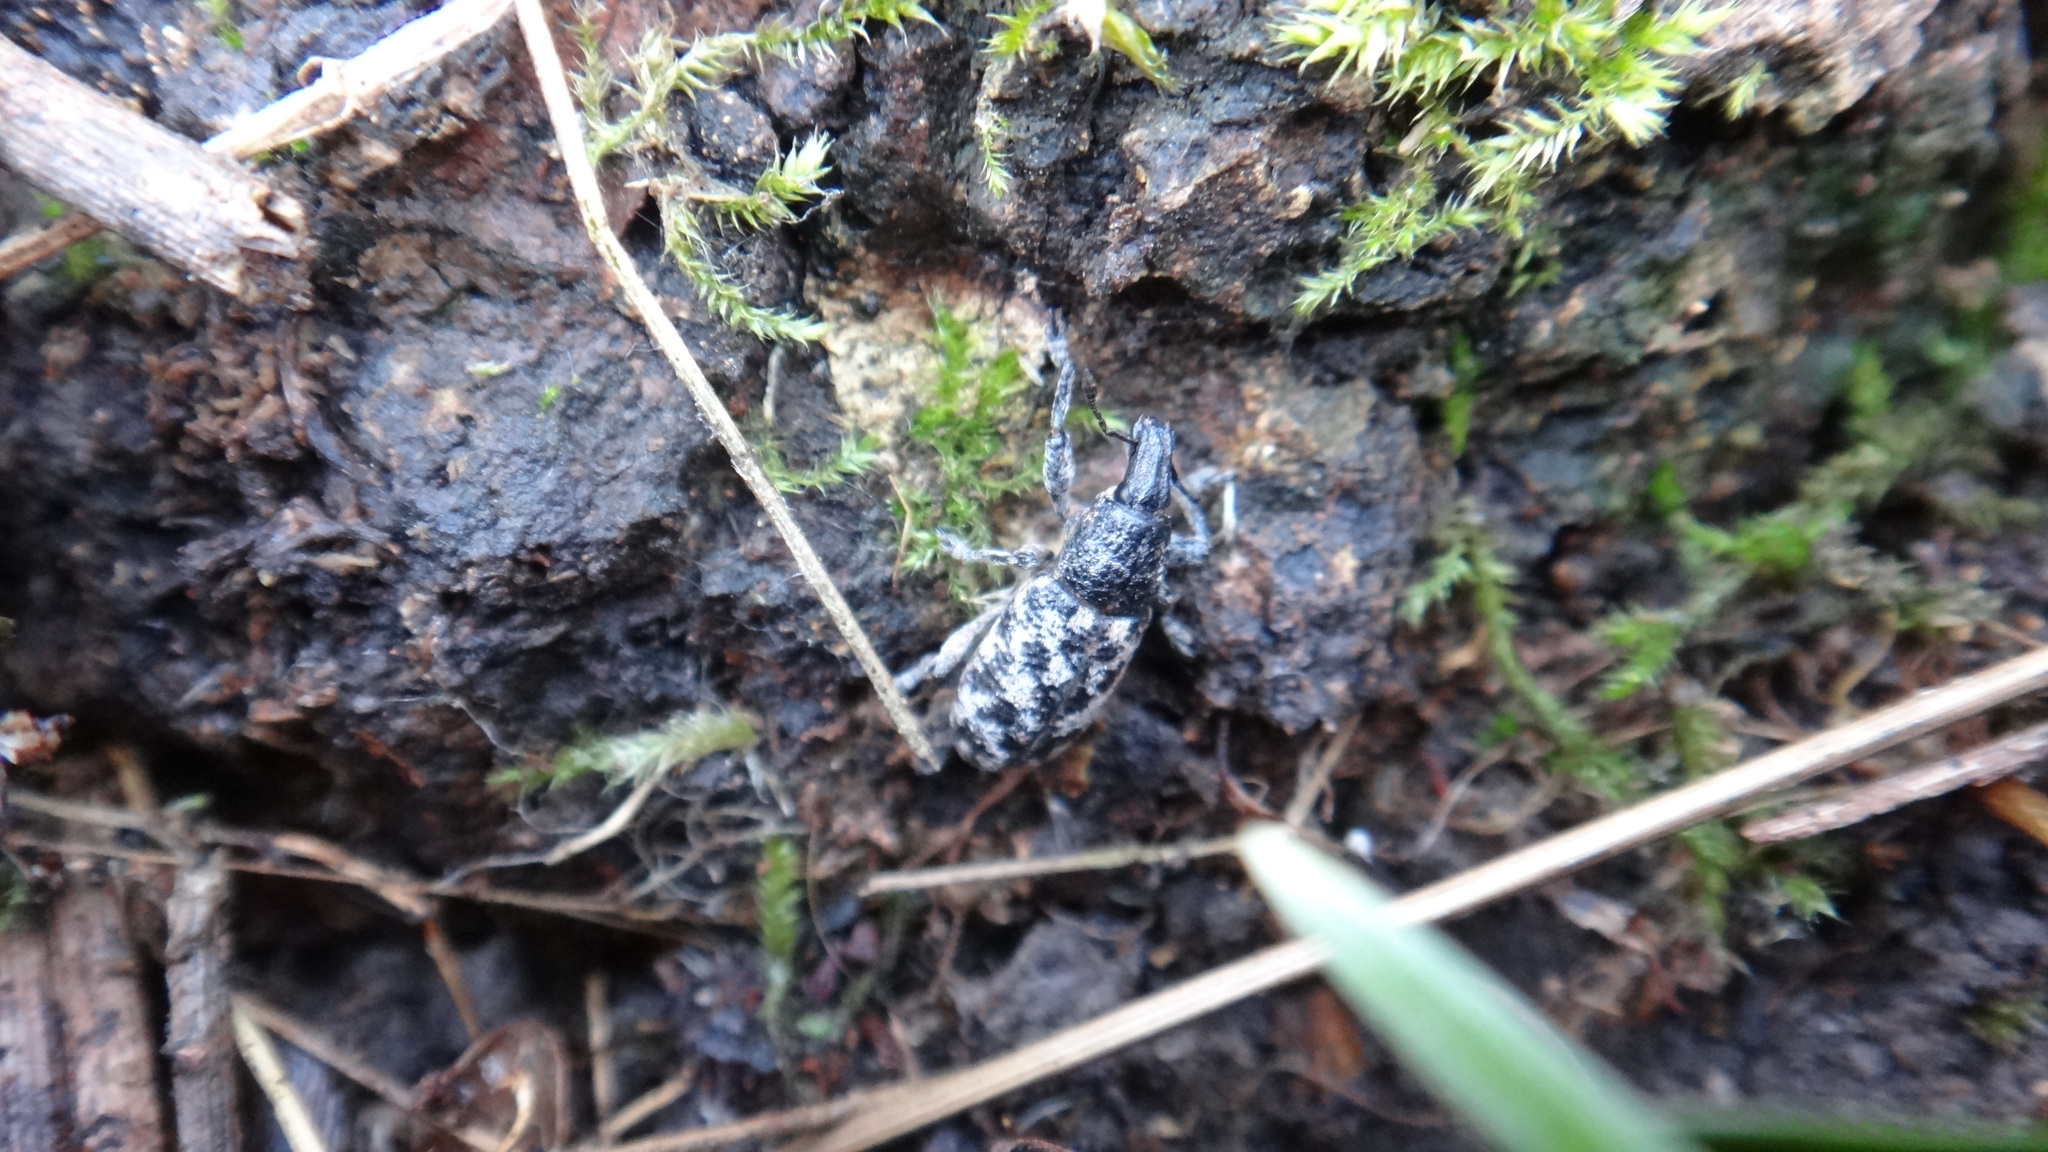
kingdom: Animalia
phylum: Arthropoda
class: Insecta
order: Coleoptera
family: Curculionidae
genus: Cyphocleonus
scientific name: Cyphocleonus dealbatus
